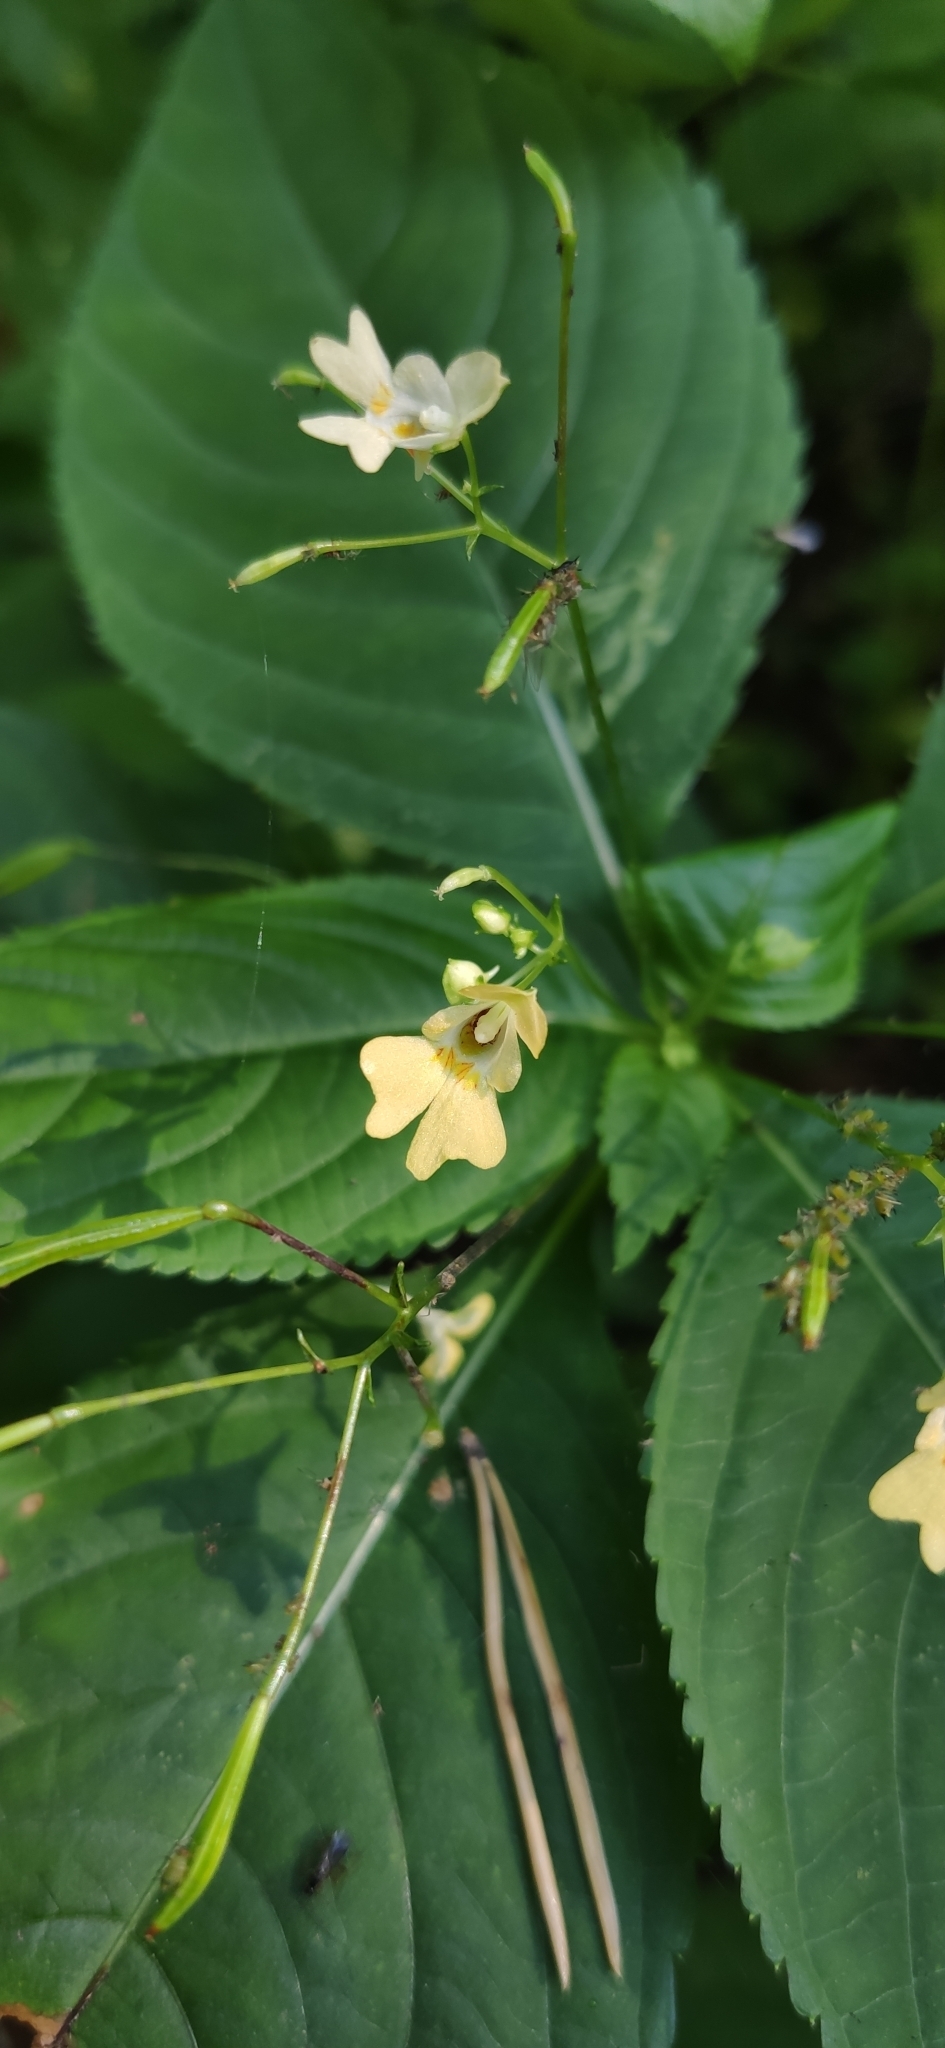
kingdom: Plantae
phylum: Tracheophyta
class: Magnoliopsida
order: Ericales
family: Balsaminaceae
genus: Impatiens
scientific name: Impatiens parviflora
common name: Small balsam
